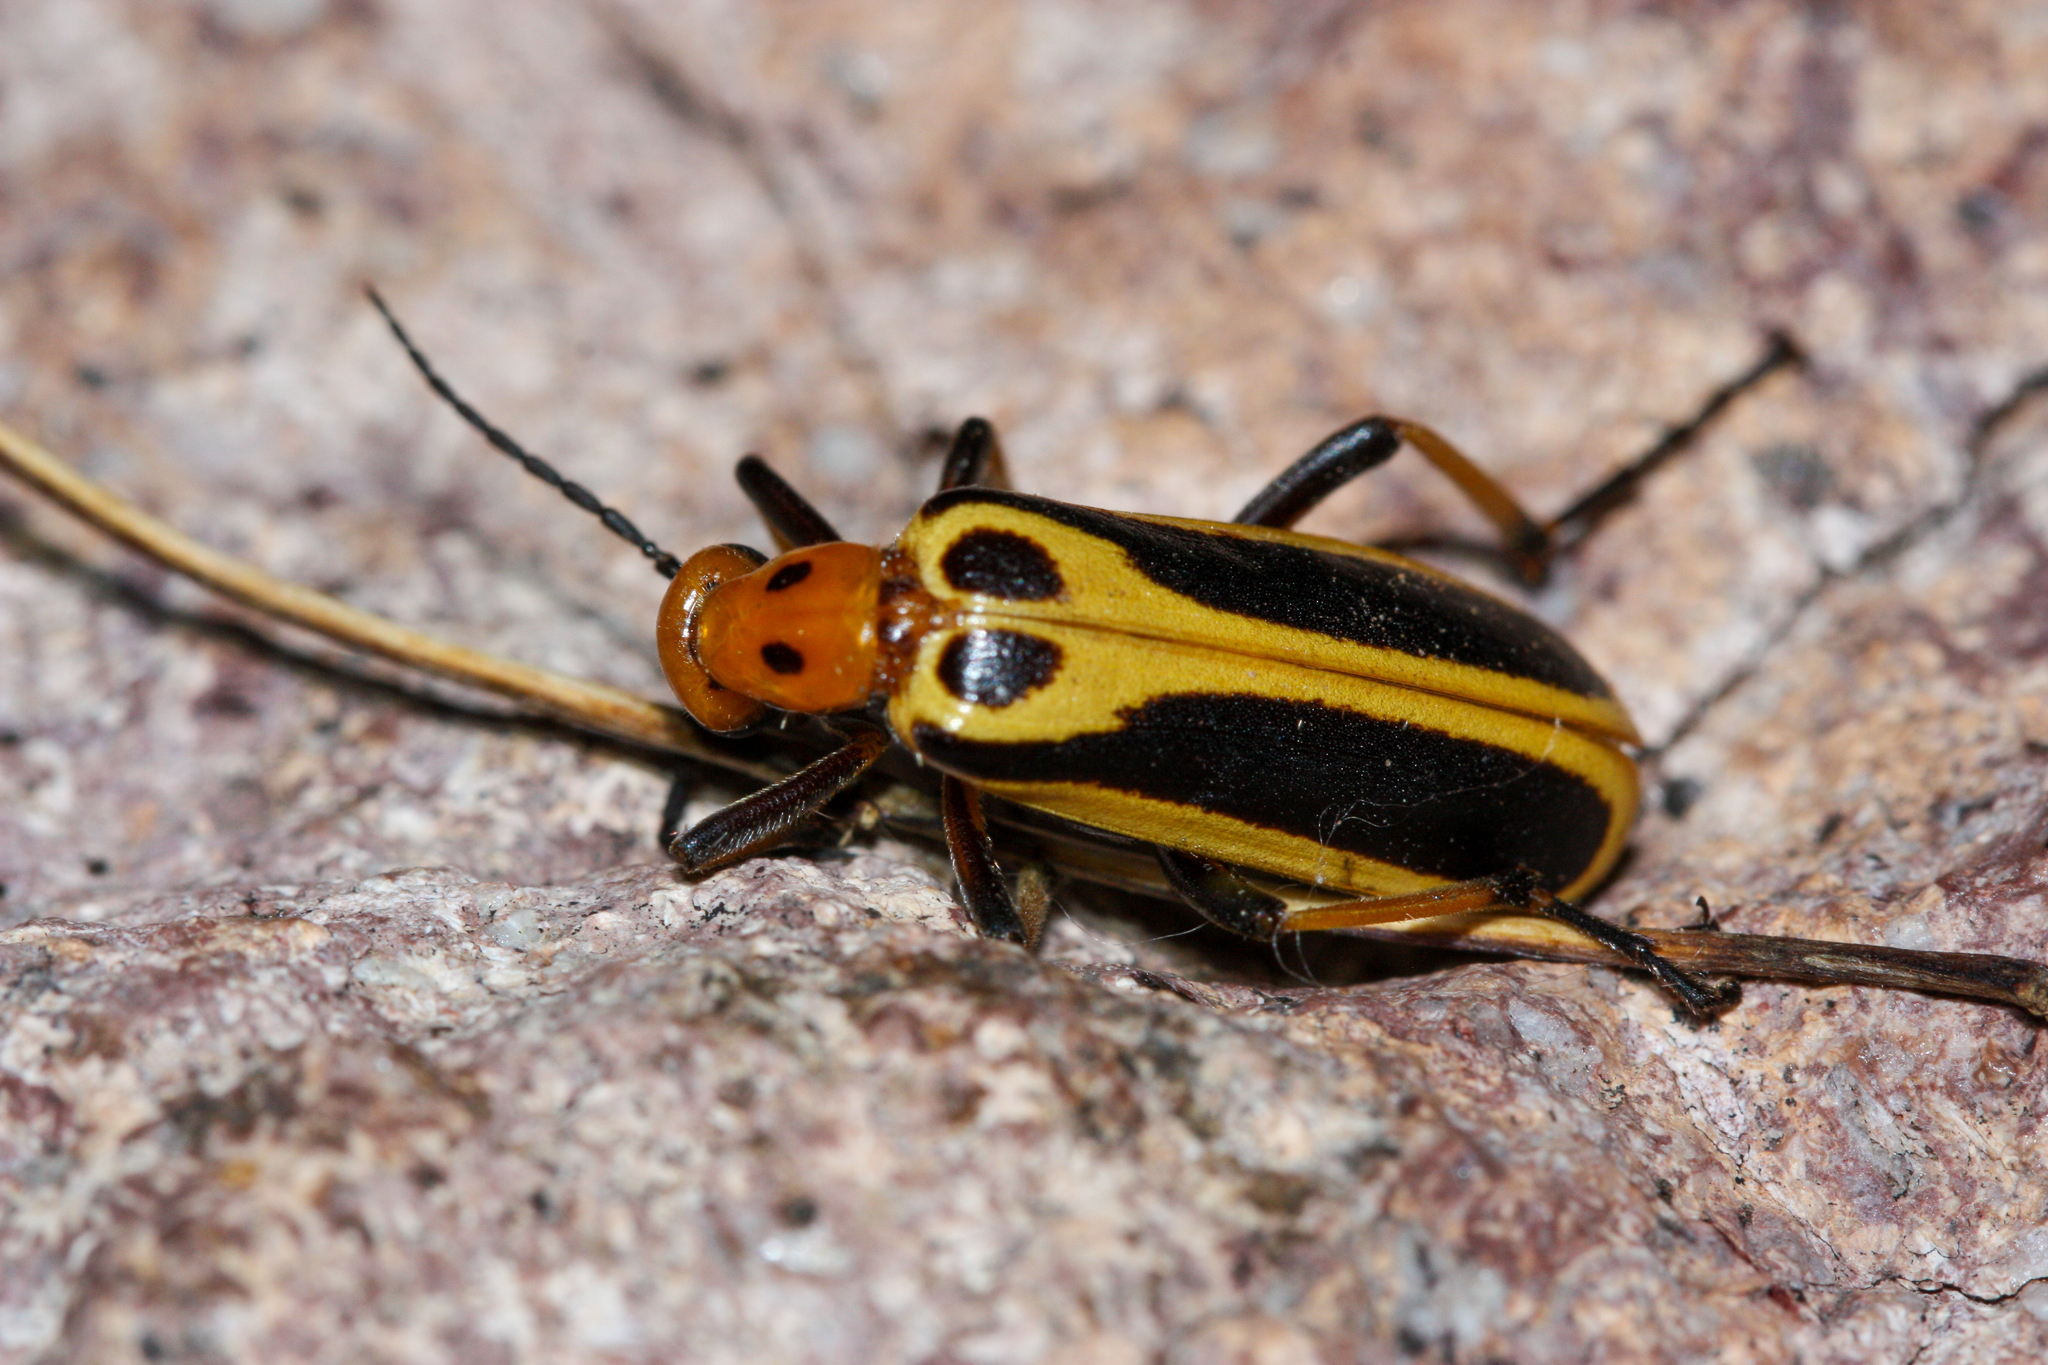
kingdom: Animalia
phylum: Arthropoda
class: Insecta
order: Coleoptera
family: Meloidae
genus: Pyrota
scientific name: Pyrota
